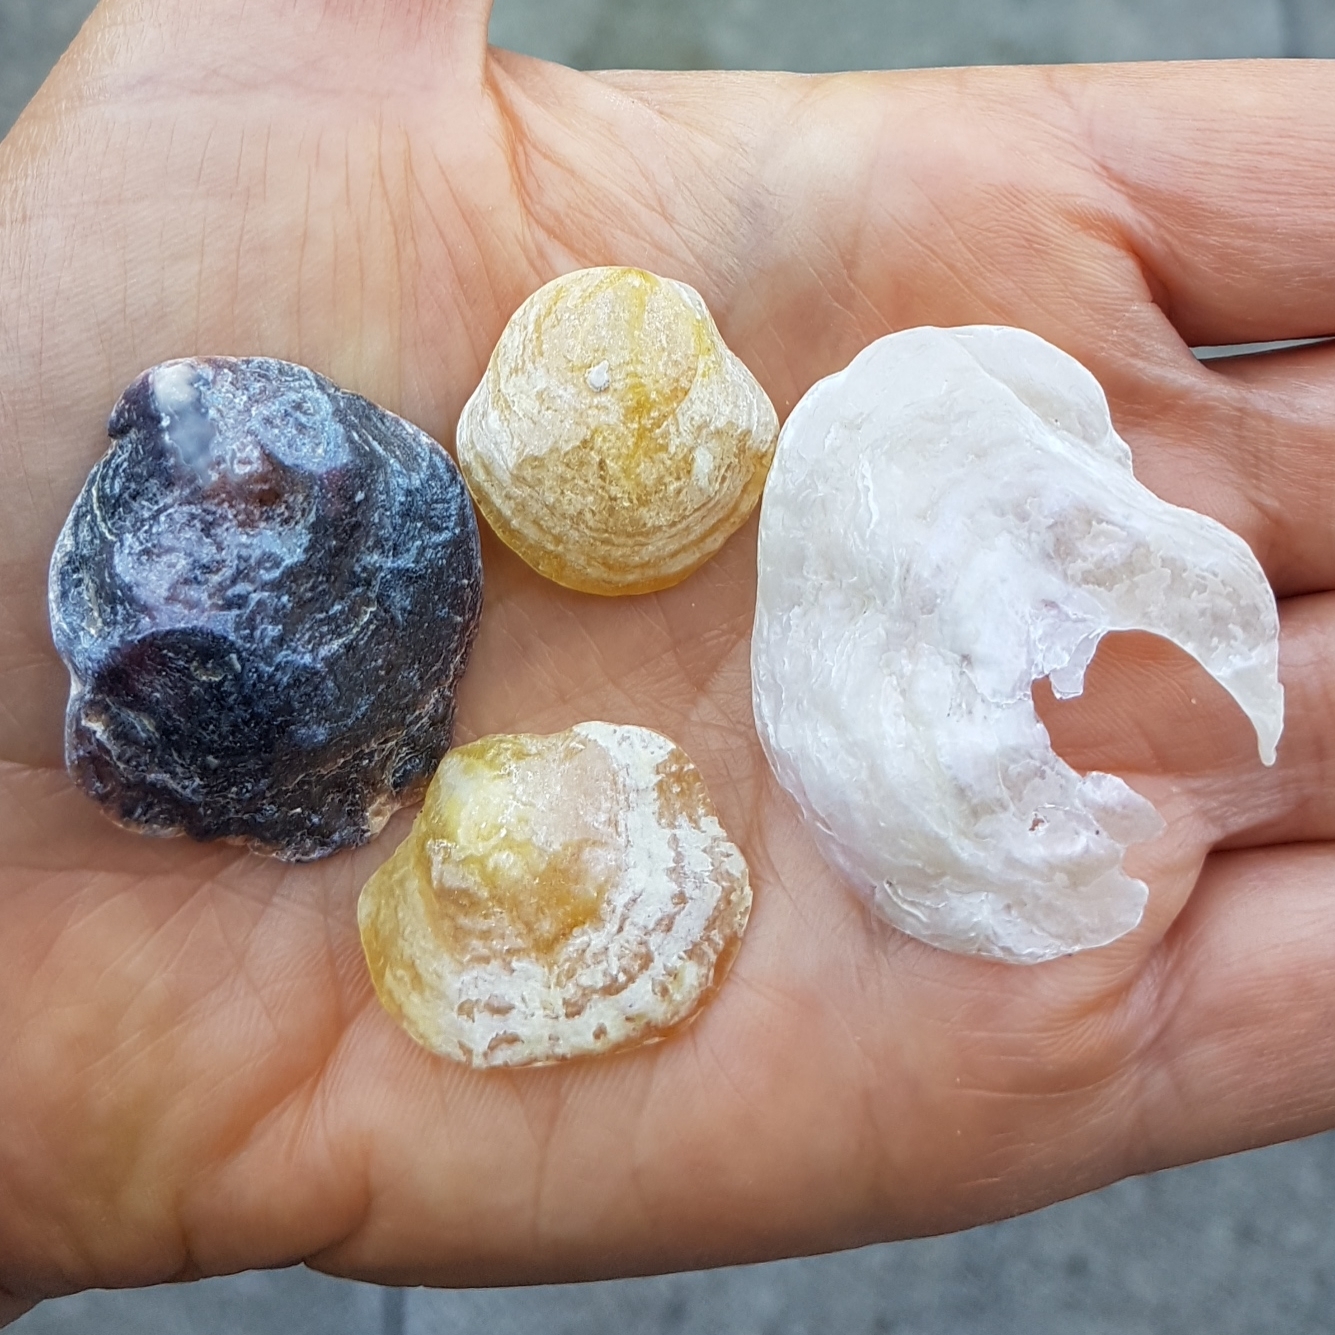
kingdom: Animalia
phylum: Mollusca
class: Bivalvia
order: Pectinida
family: Anomiidae
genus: Anomia
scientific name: Anomia ephippium
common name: Saddle oyster
